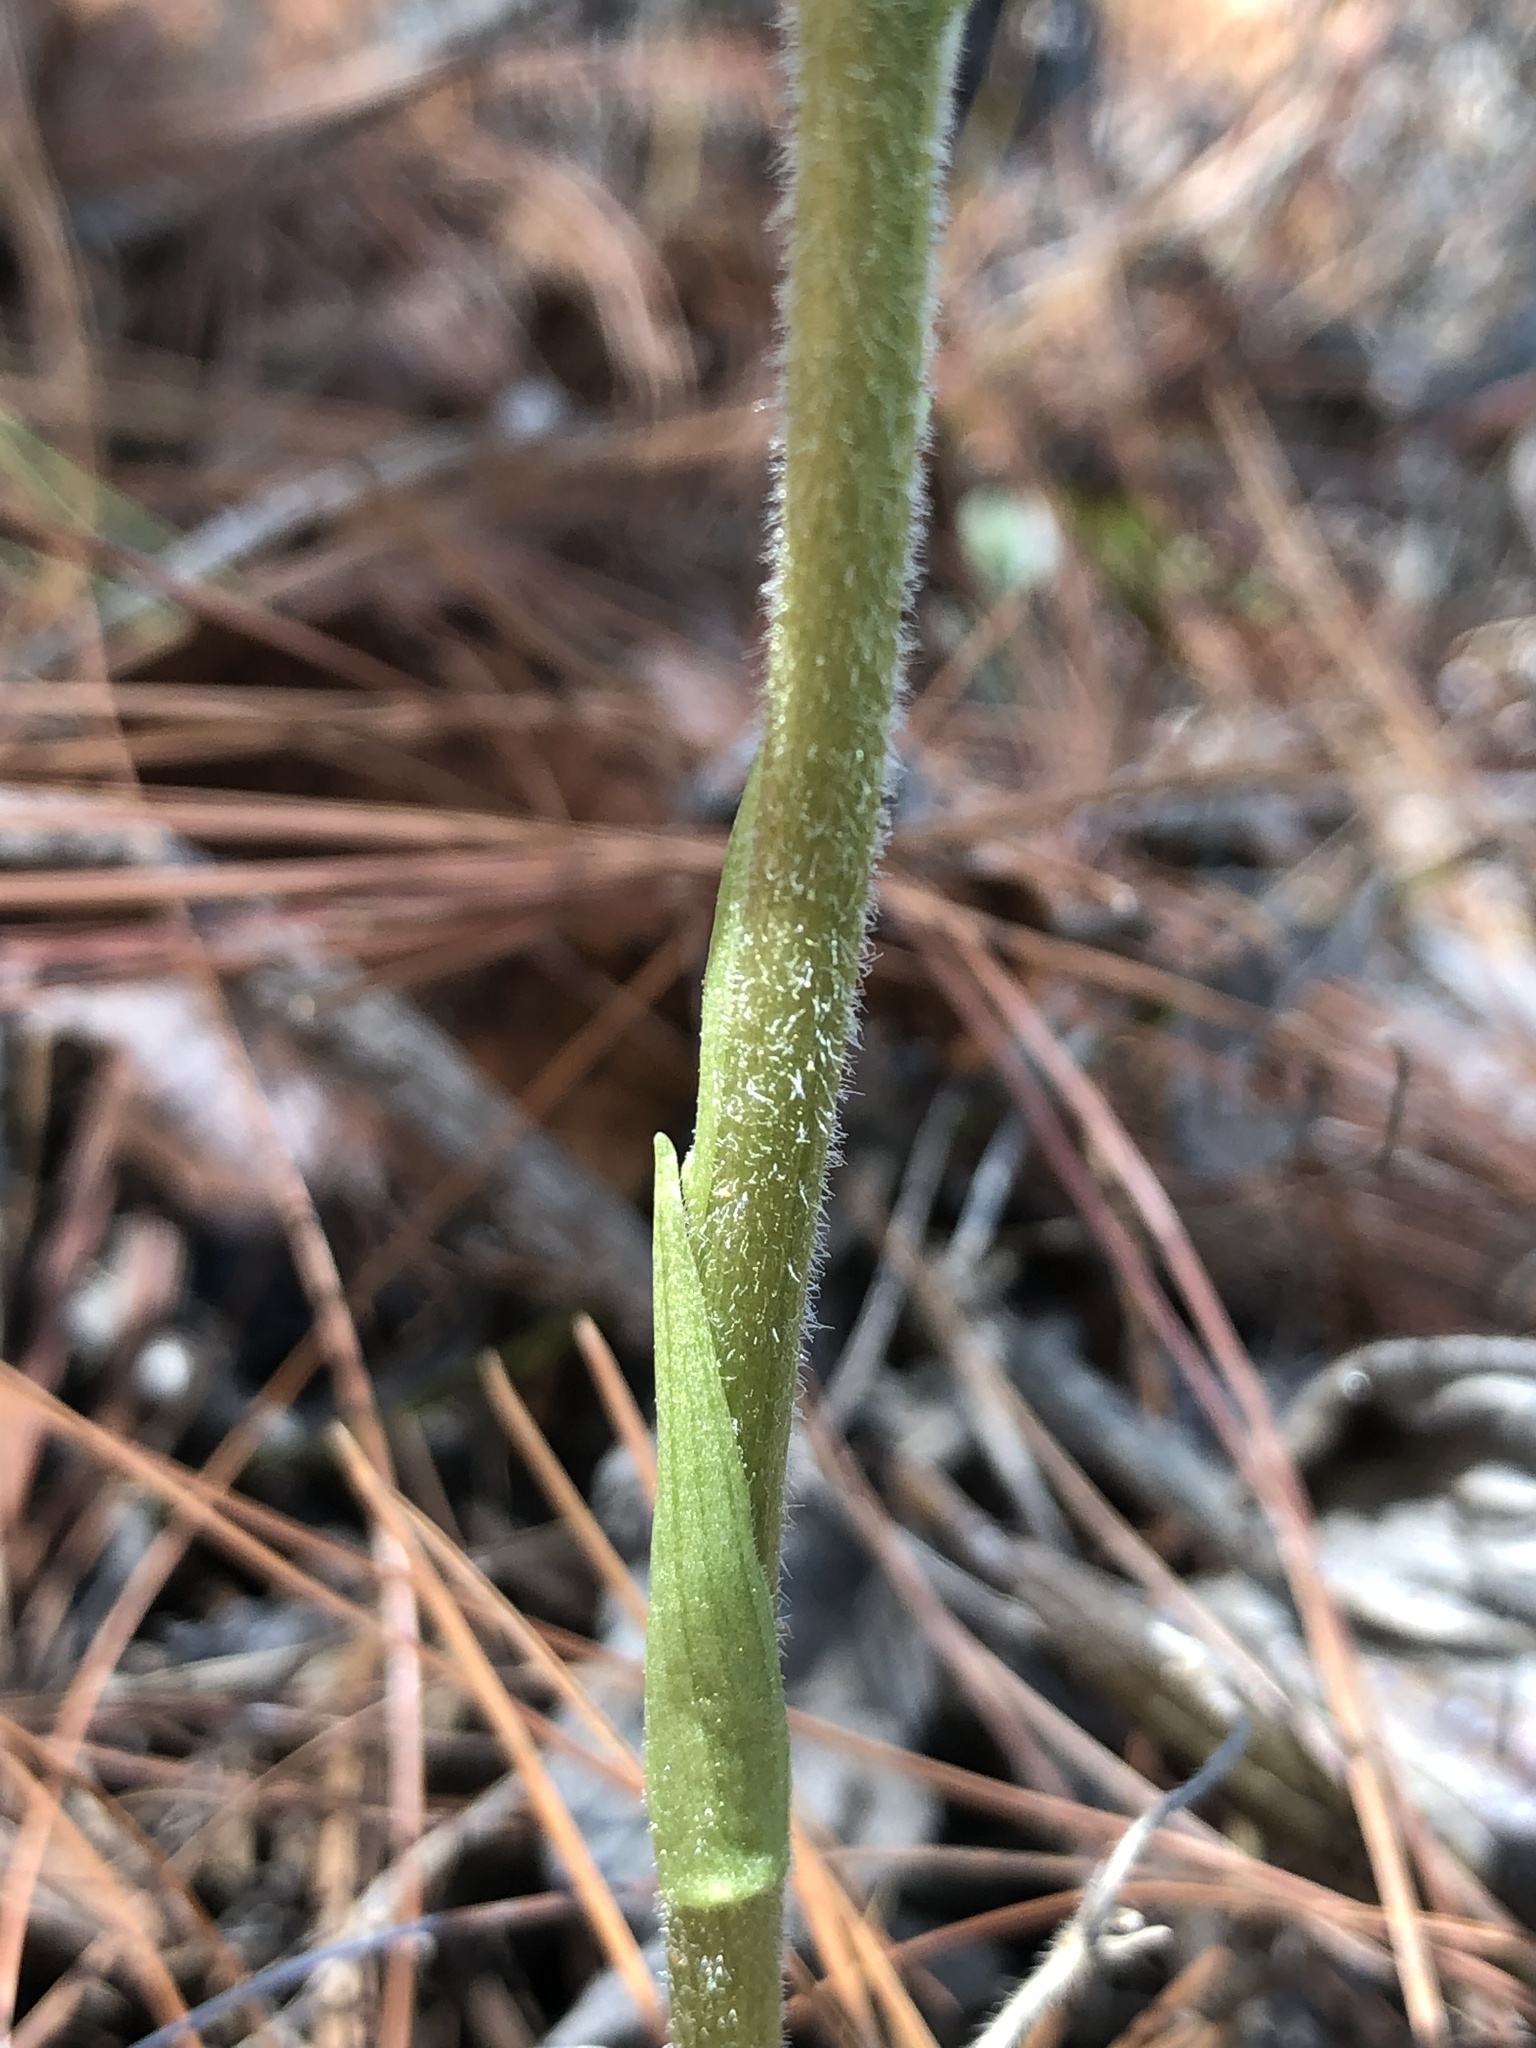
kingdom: Plantae
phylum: Tracheophyta
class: Liliopsida
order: Asparagales
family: Orchidaceae
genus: Sarcoglottis
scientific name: Sarcoglottis schaffneri
